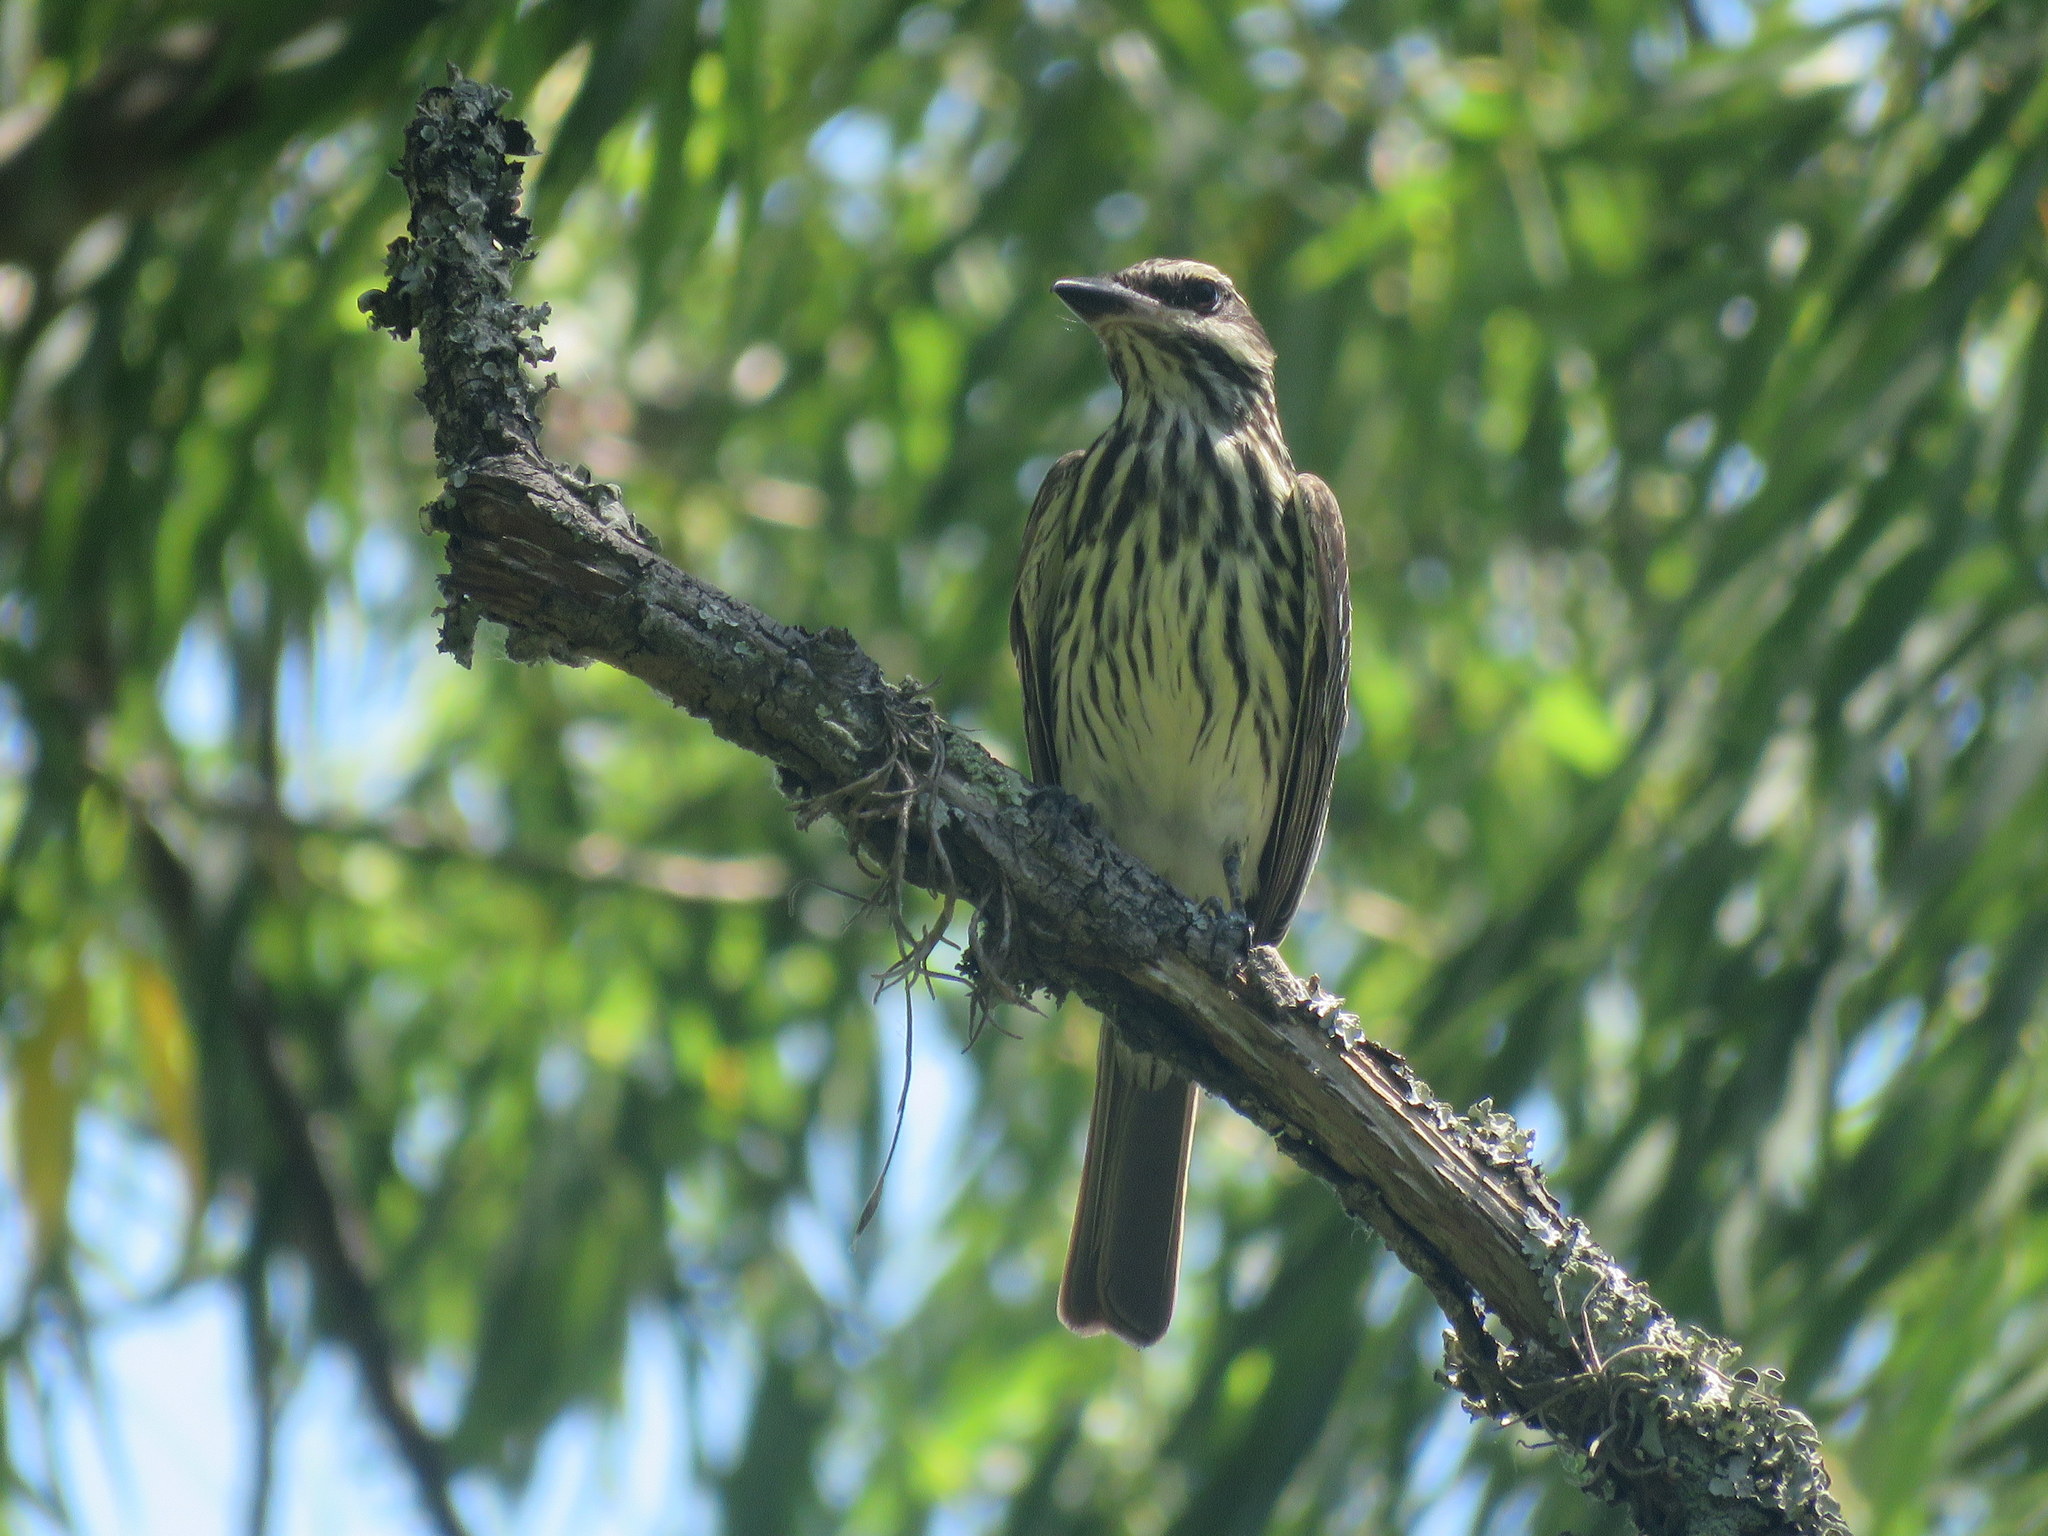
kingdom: Animalia
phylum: Chordata
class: Aves
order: Passeriformes
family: Tyrannidae
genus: Myiodynastes
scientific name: Myiodynastes maculatus
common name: Streaked flycatcher
